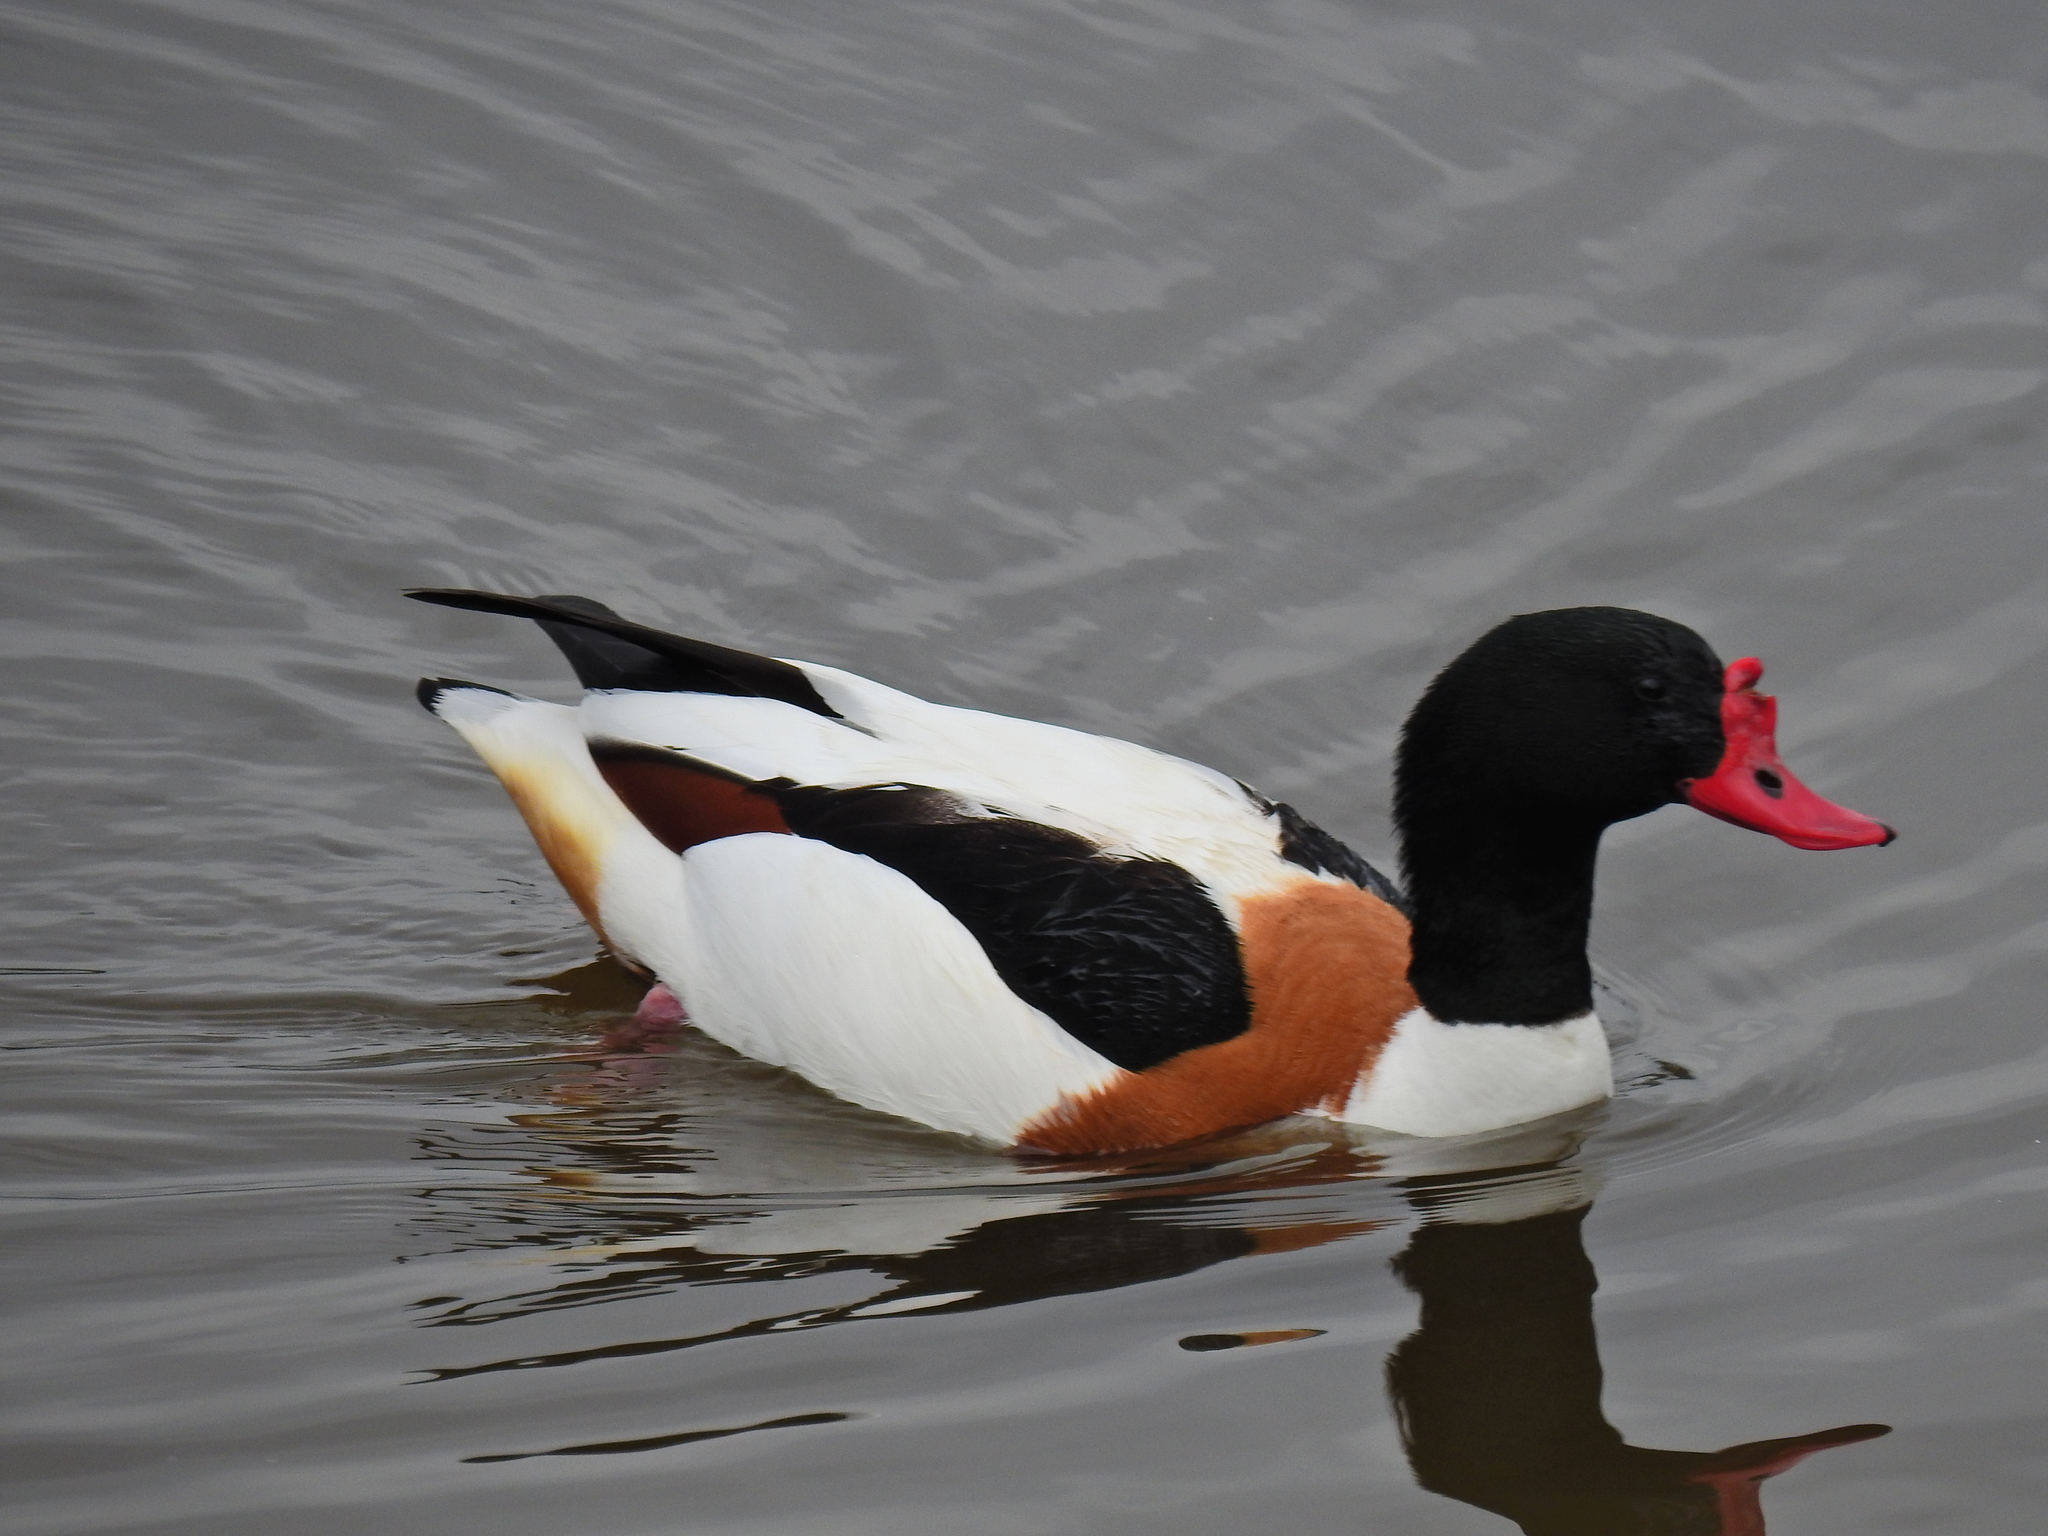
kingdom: Animalia
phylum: Chordata
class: Aves
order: Anseriformes
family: Anatidae
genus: Tadorna
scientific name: Tadorna tadorna
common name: Common shelduck
